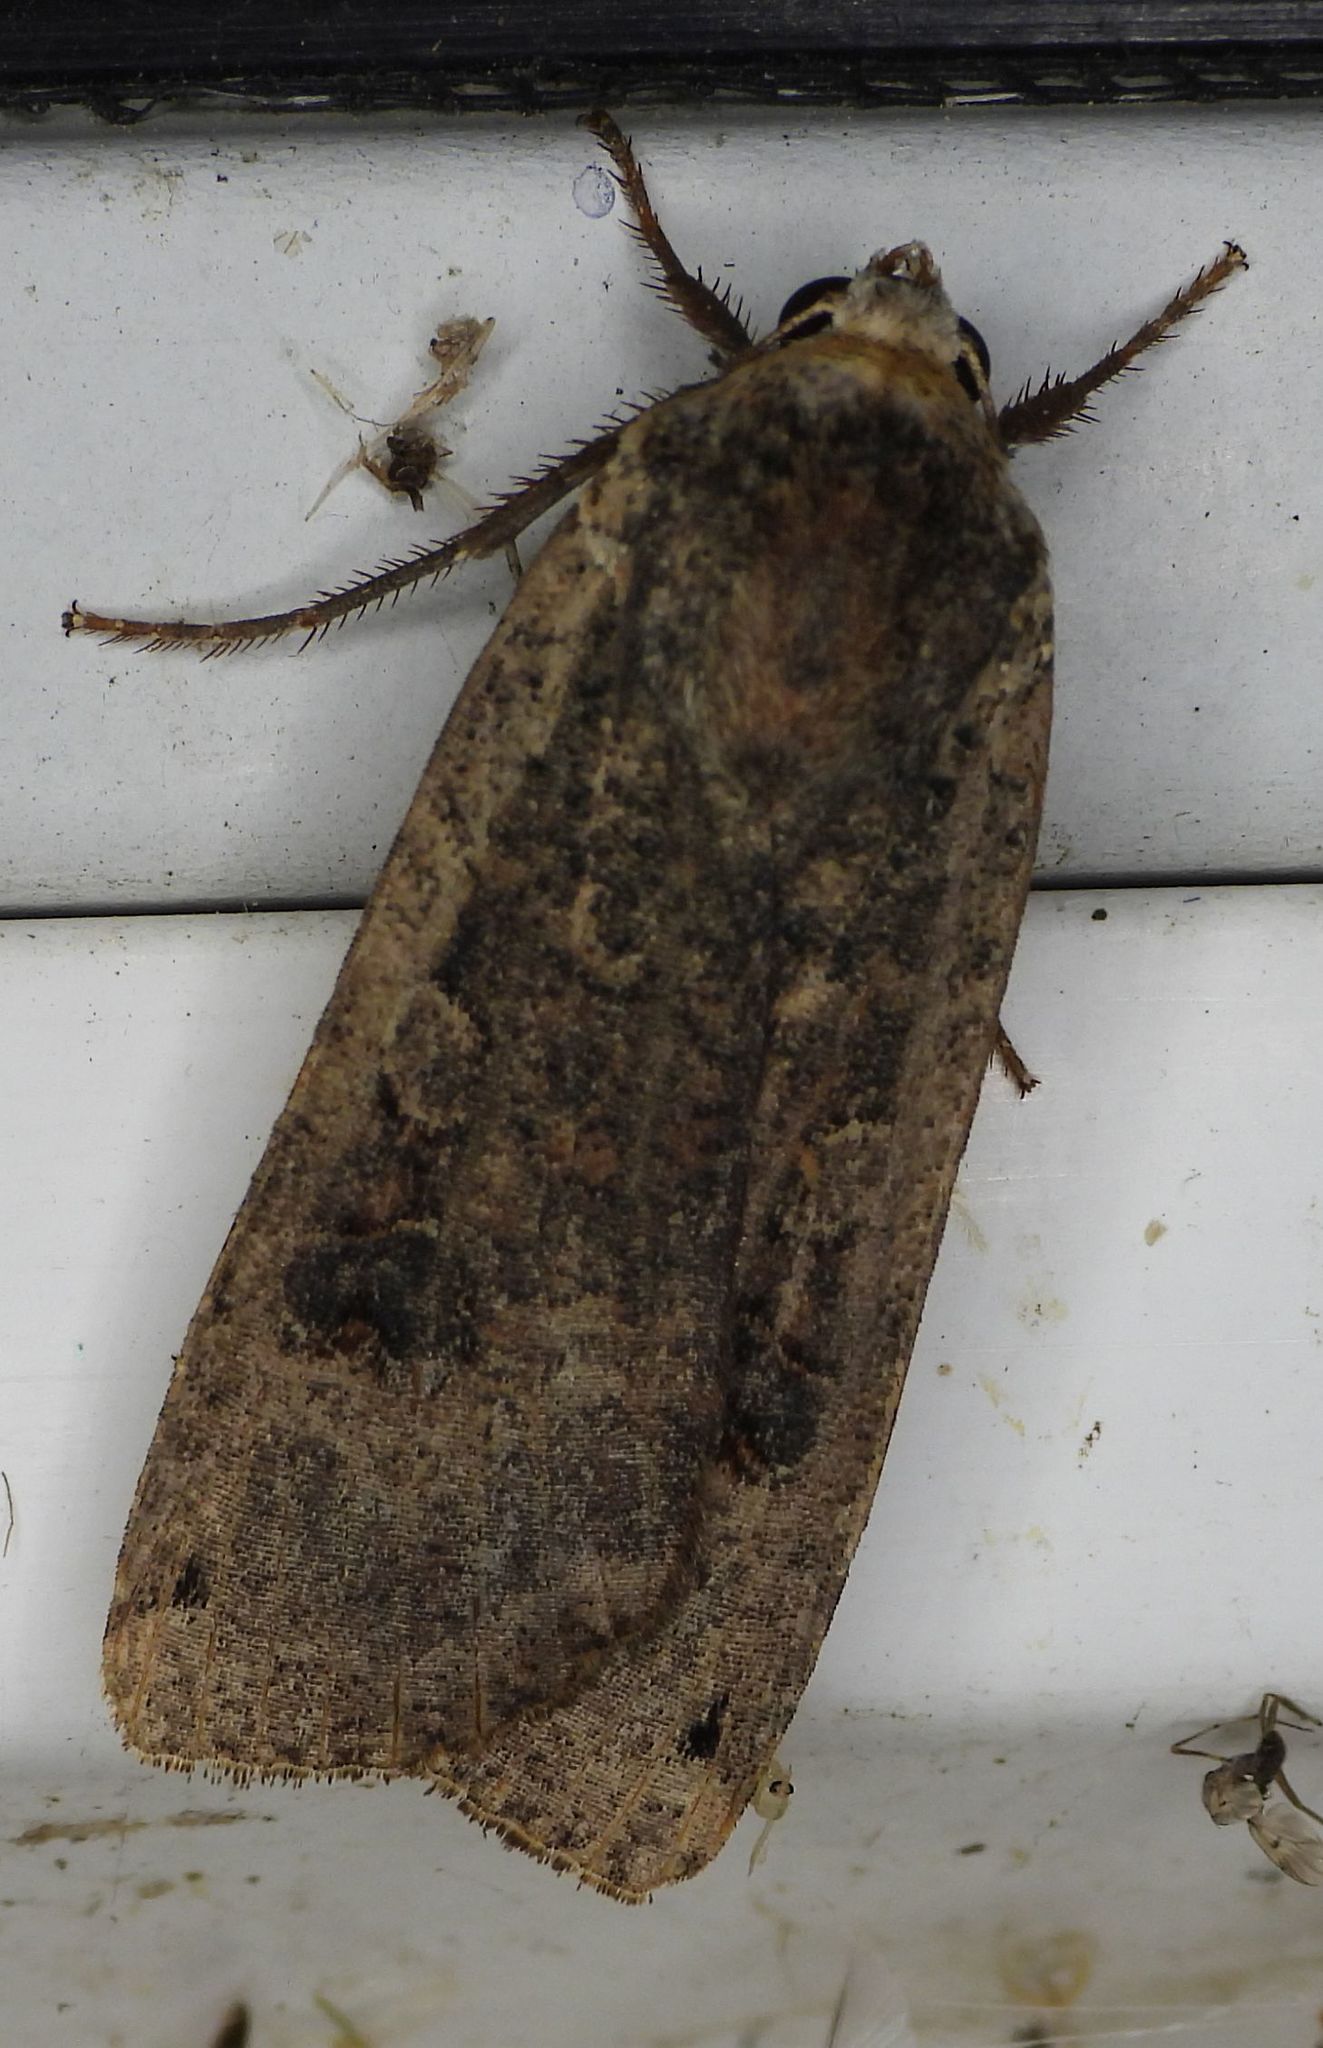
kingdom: Animalia
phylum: Arthropoda
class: Insecta
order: Lepidoptera
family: Noctuidae
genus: Noctua
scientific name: Noctua pronuba
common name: Large yellow underwing
